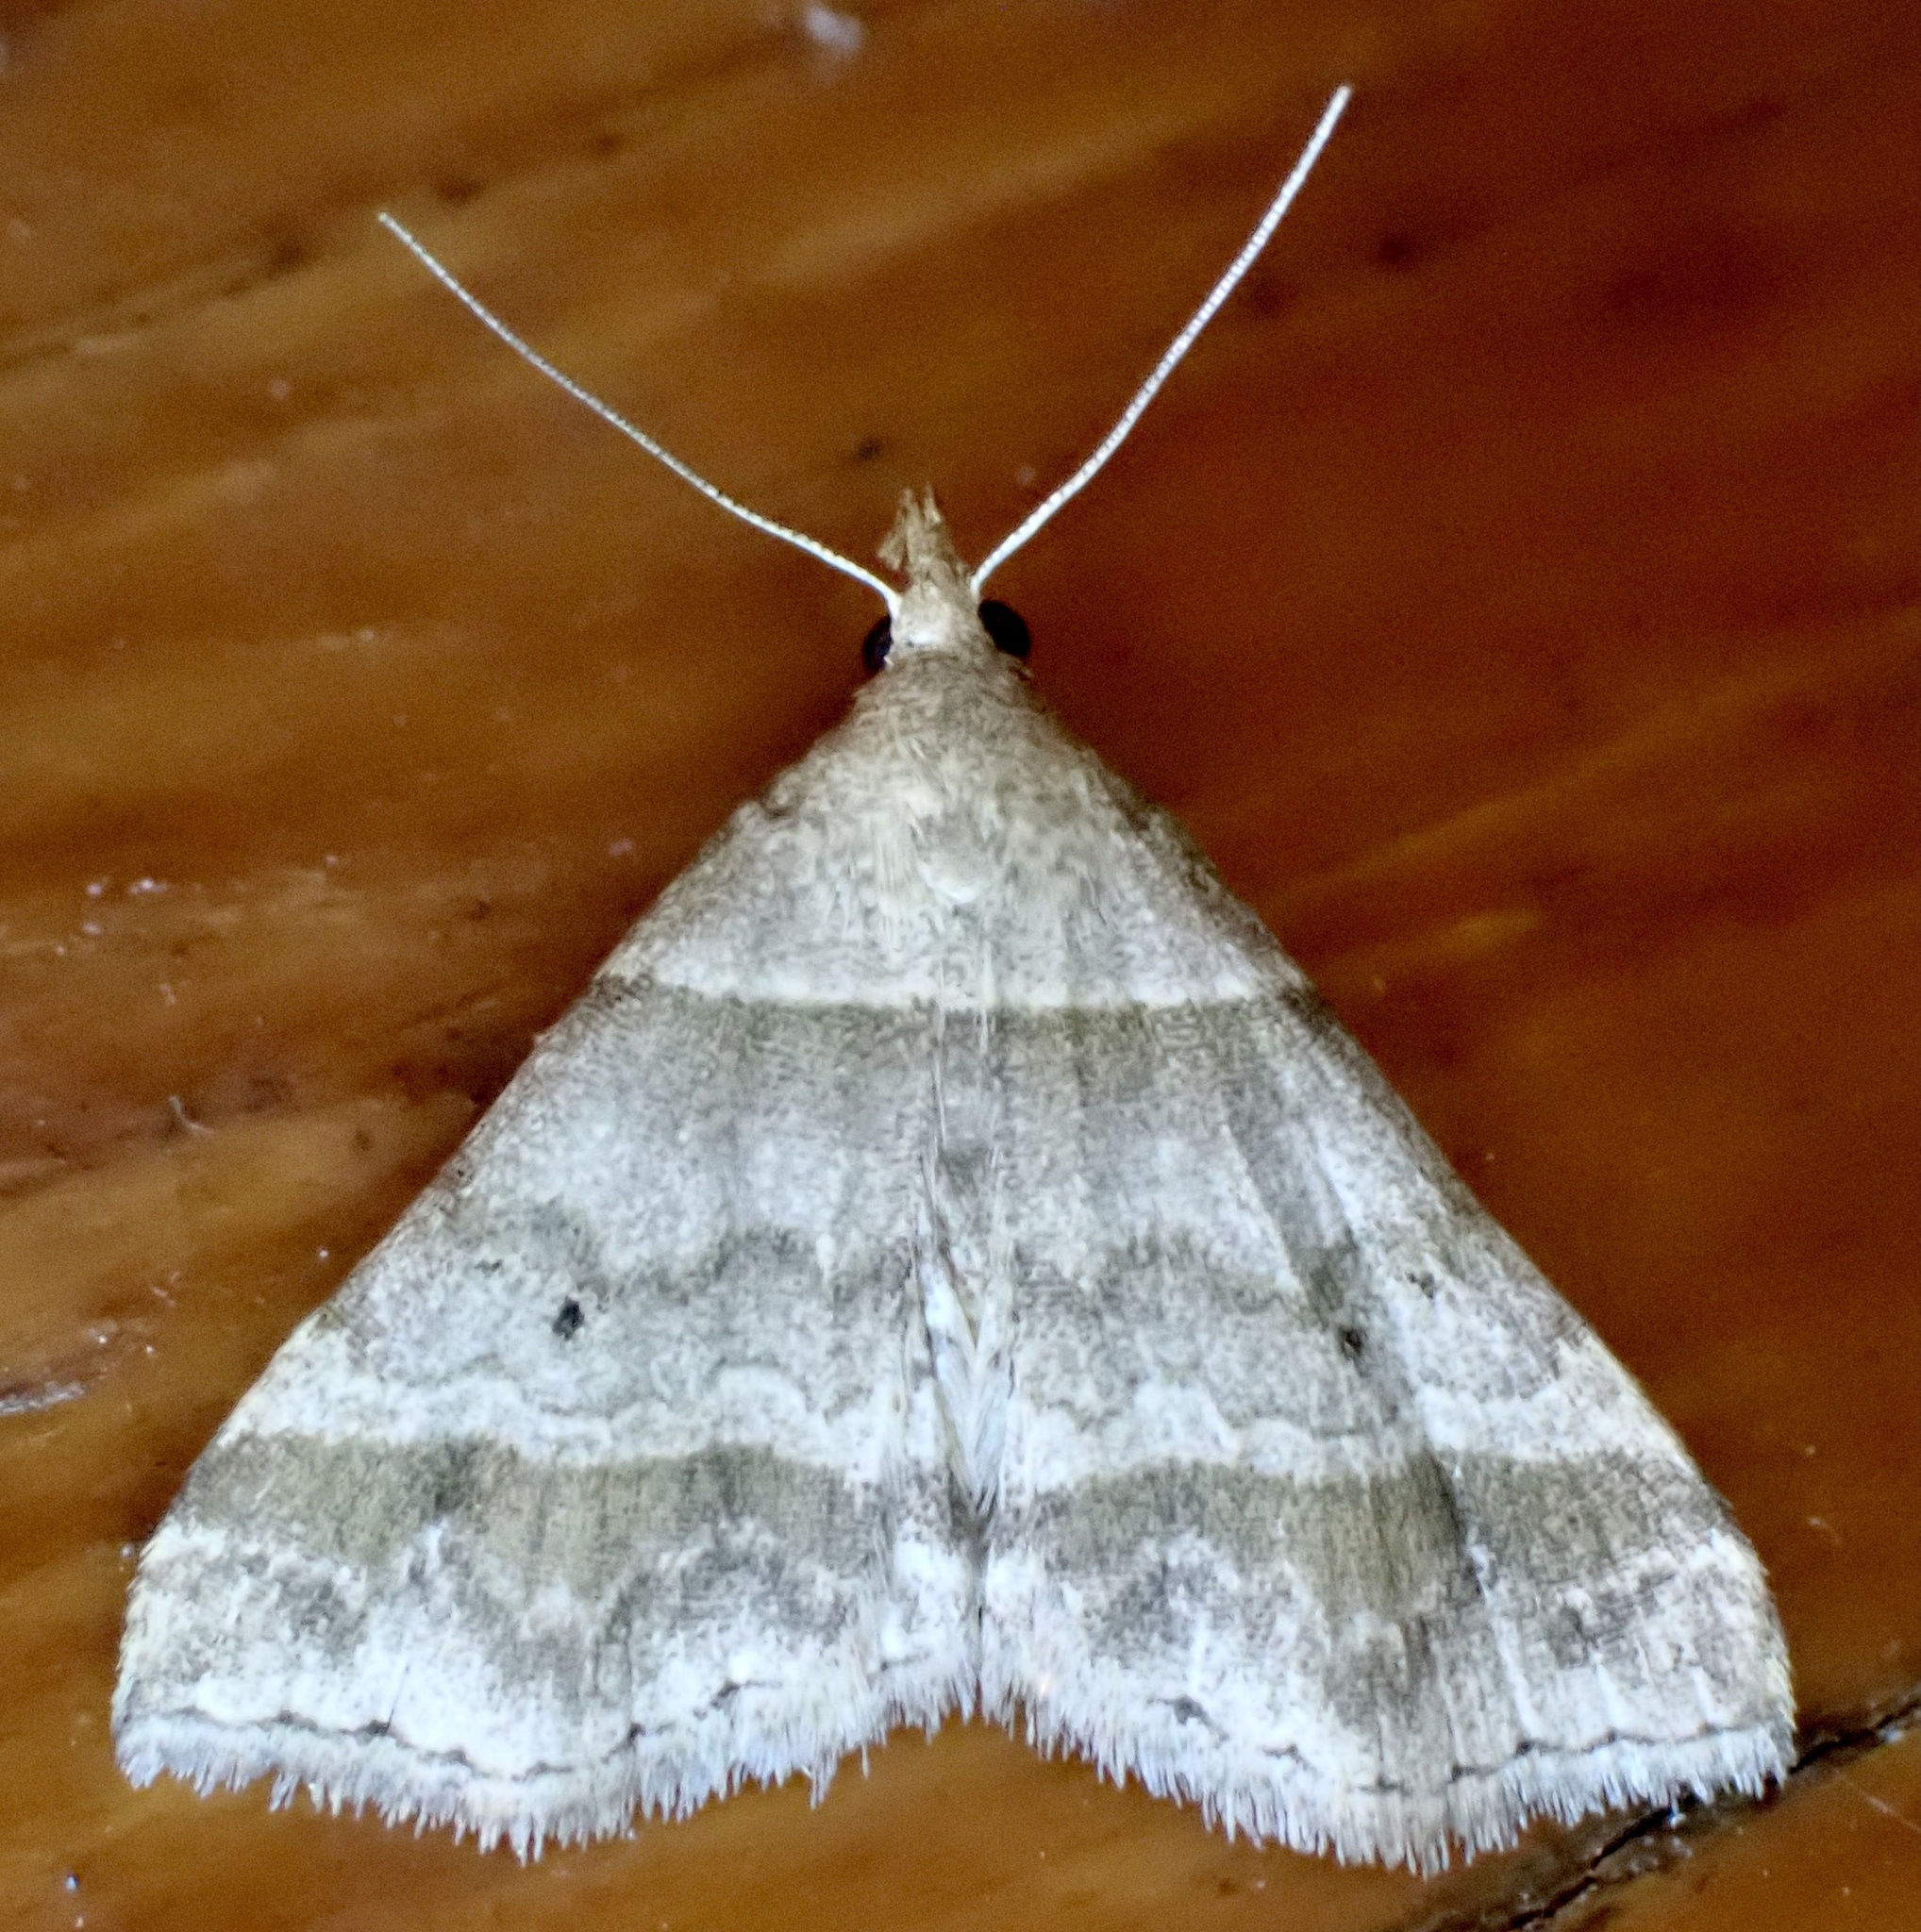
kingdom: Animalia
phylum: Arthropoda
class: Insecta
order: Lepidoptera
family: Erebidae
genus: Phaeolita
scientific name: Phaeolita pyramusalis
